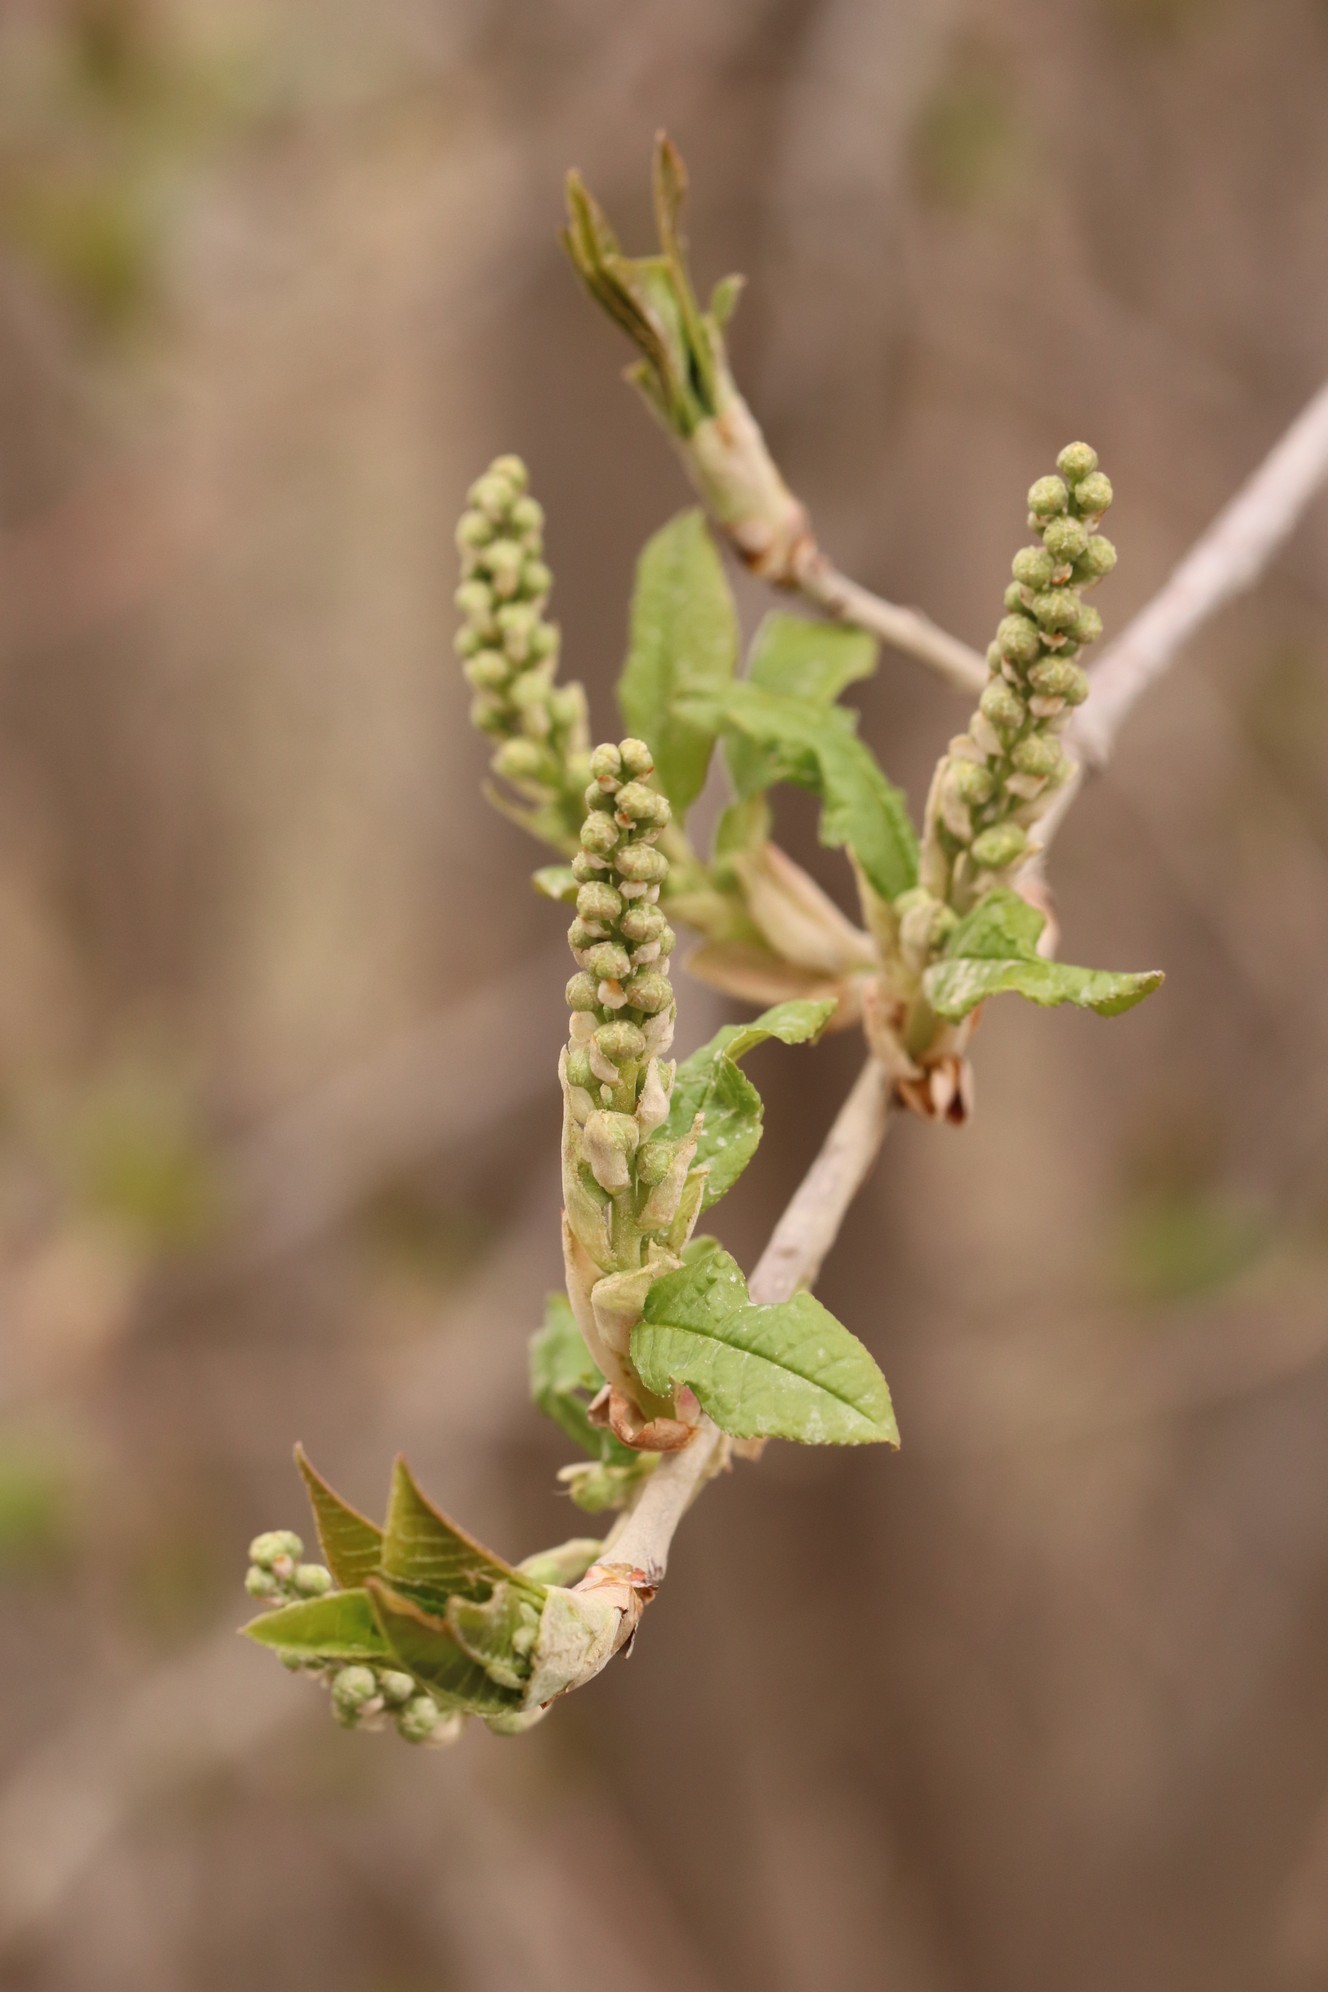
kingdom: Plantae
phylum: Tracheophyta
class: Magnoliopsida
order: Rosales
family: Rosaceae
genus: Prunus
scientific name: Prunus padus
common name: Bird cherry
